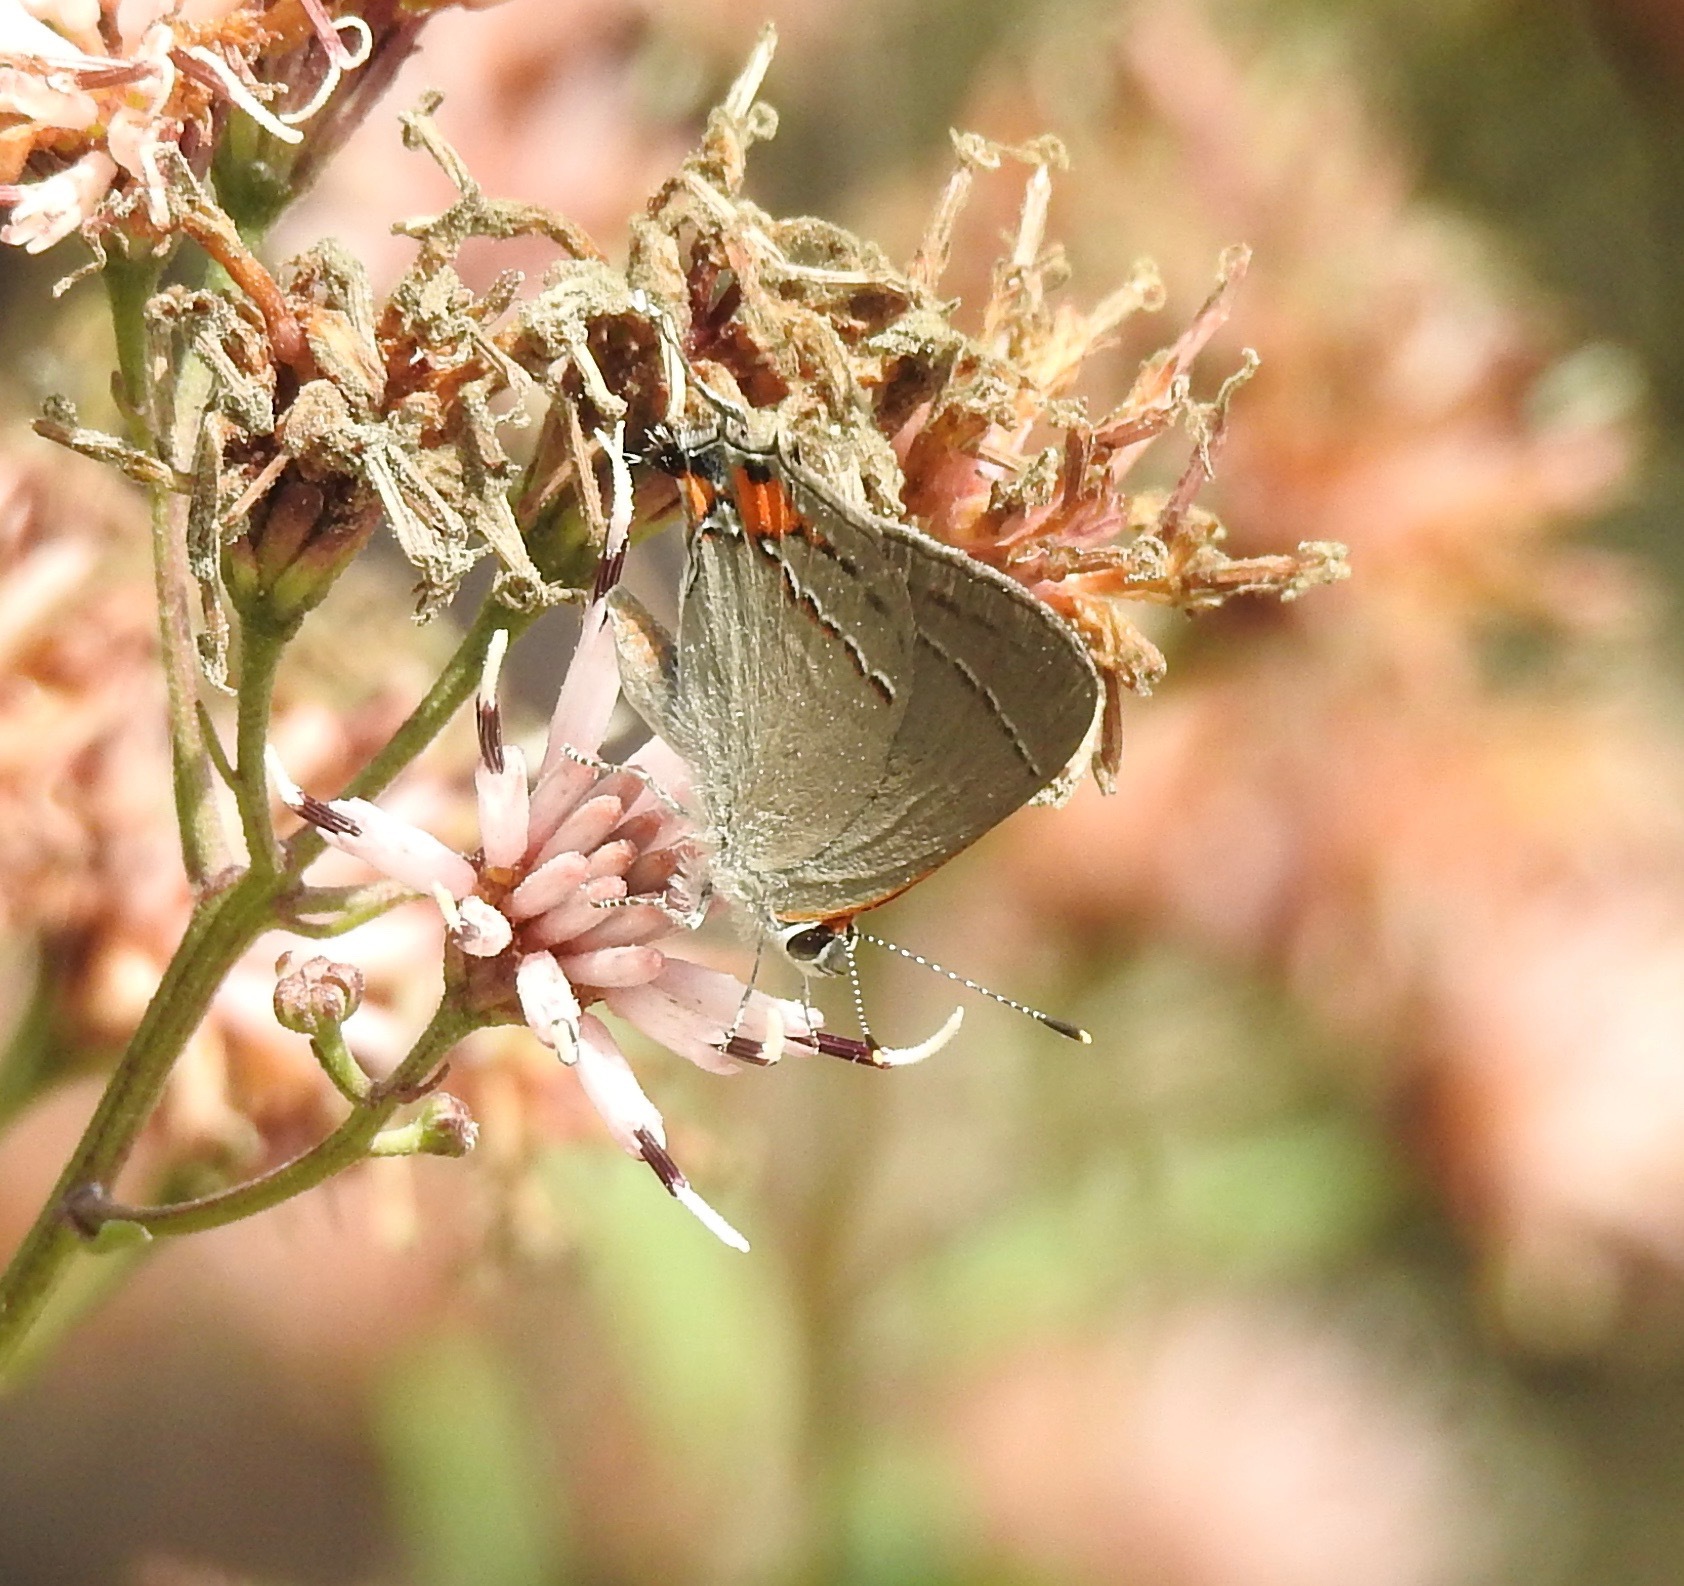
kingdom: Animalia
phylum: Arthropoda
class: Insecta
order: Lepidoptera
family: Lycaenidae
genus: Strymon
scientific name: Strymon melinus
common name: Gray hairstreak
